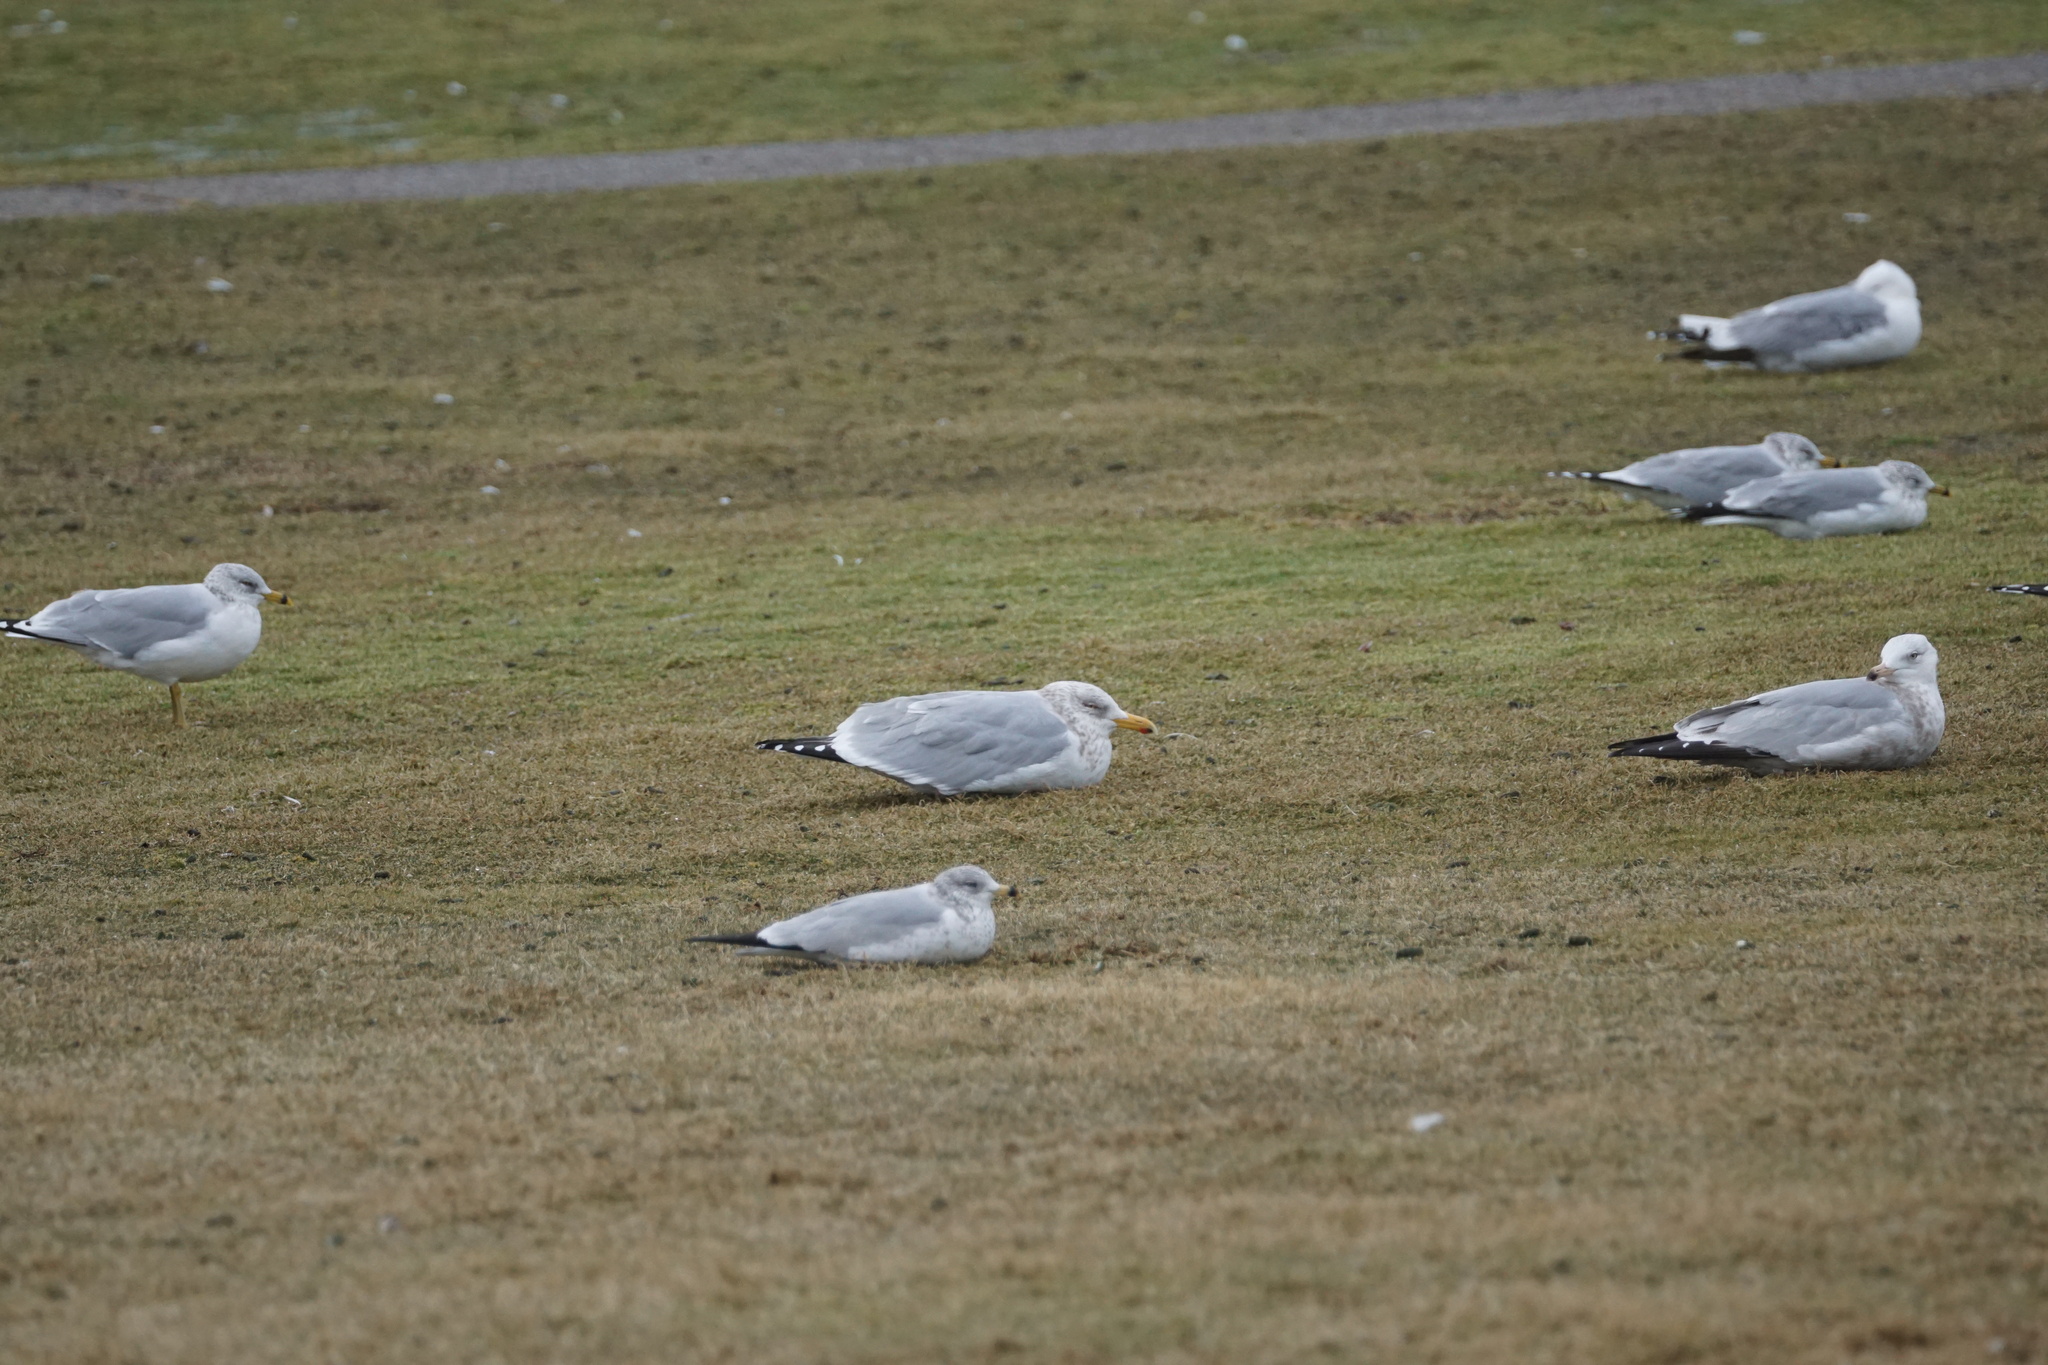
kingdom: Animalia
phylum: Chordata
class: Aves
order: Charadriiformes
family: Laridae
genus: Larus
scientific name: Larus argentatus
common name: Herring gull
